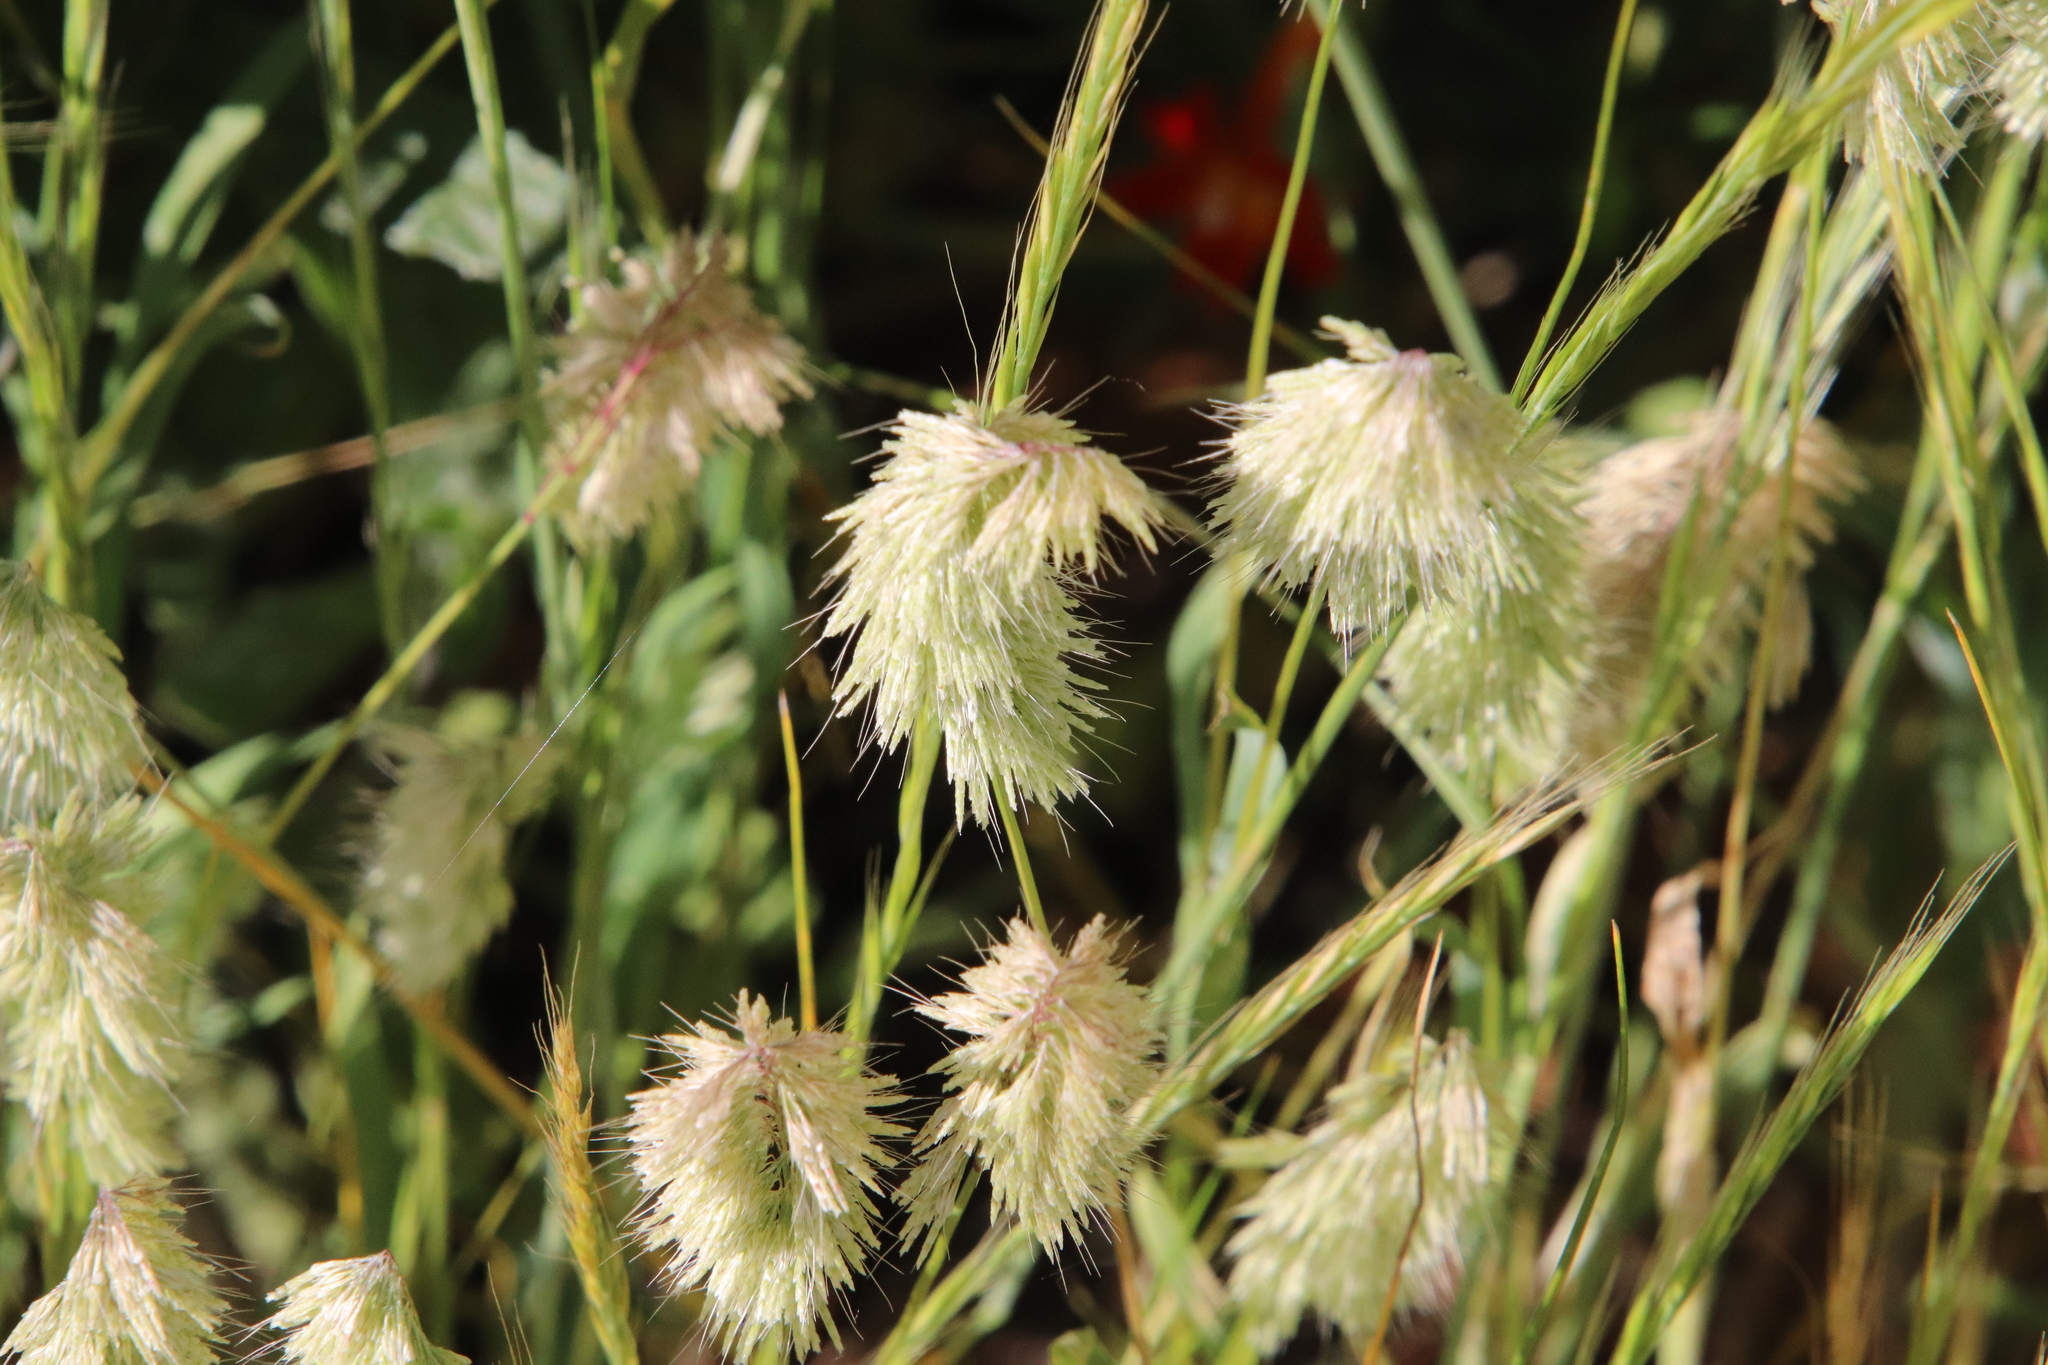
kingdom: Plantae
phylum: Tracheophyta
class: Liliopsida
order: Poales
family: Poaceae
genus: Lamarckia
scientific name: Lamarckia aurea
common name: Golden dog's-tail
